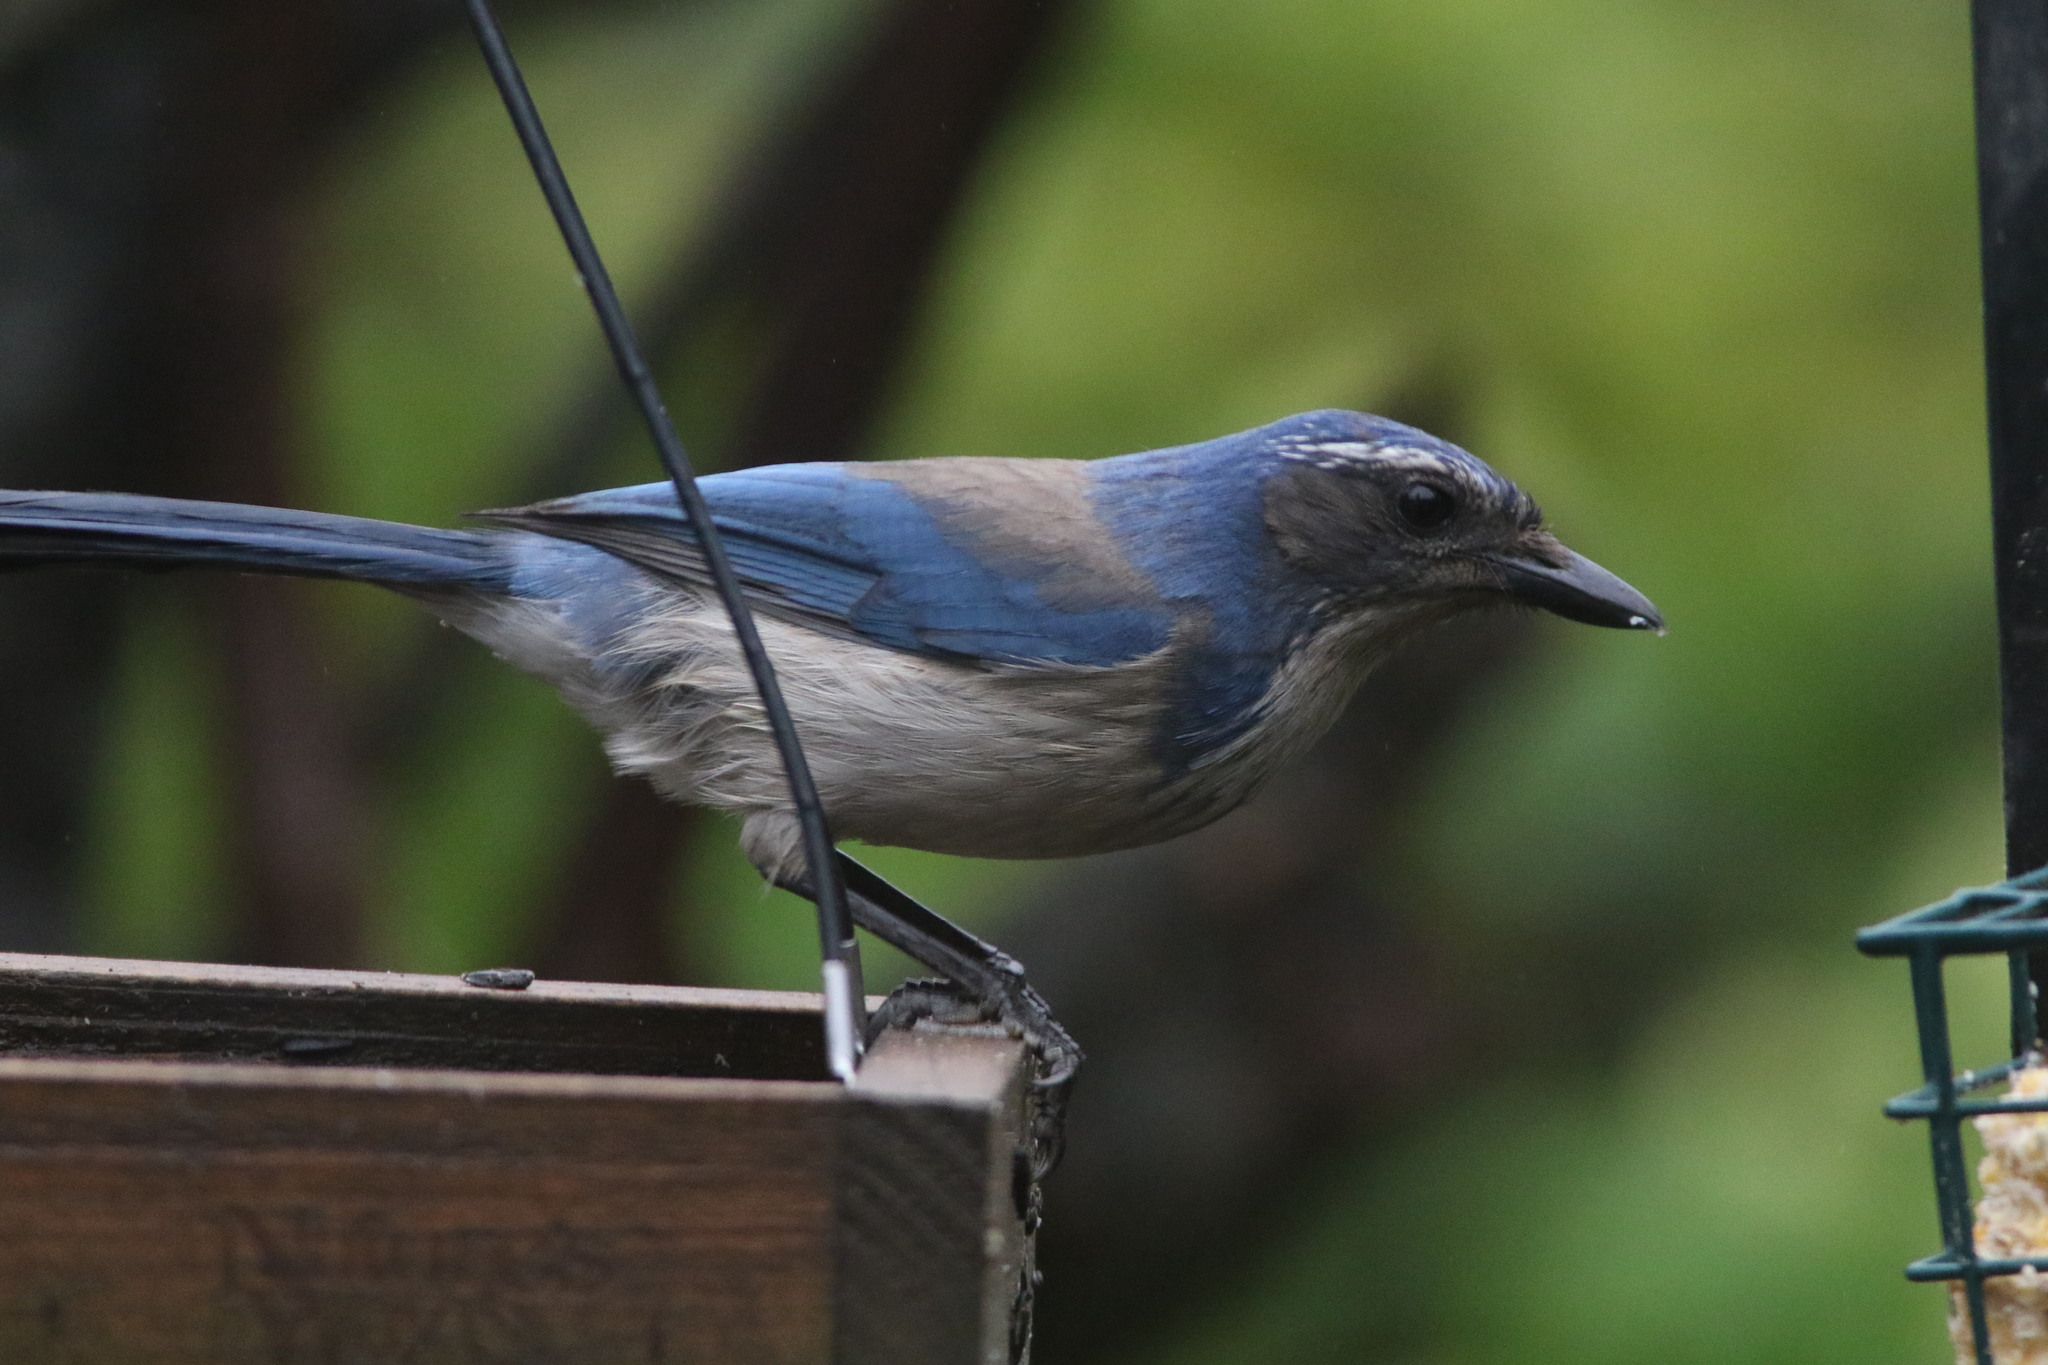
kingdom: Animalia
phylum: Chordata
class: Aves
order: Passeriformes
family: Corvidae
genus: Aphelocoma
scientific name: Aphelocoma californica
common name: California scrub-jay
